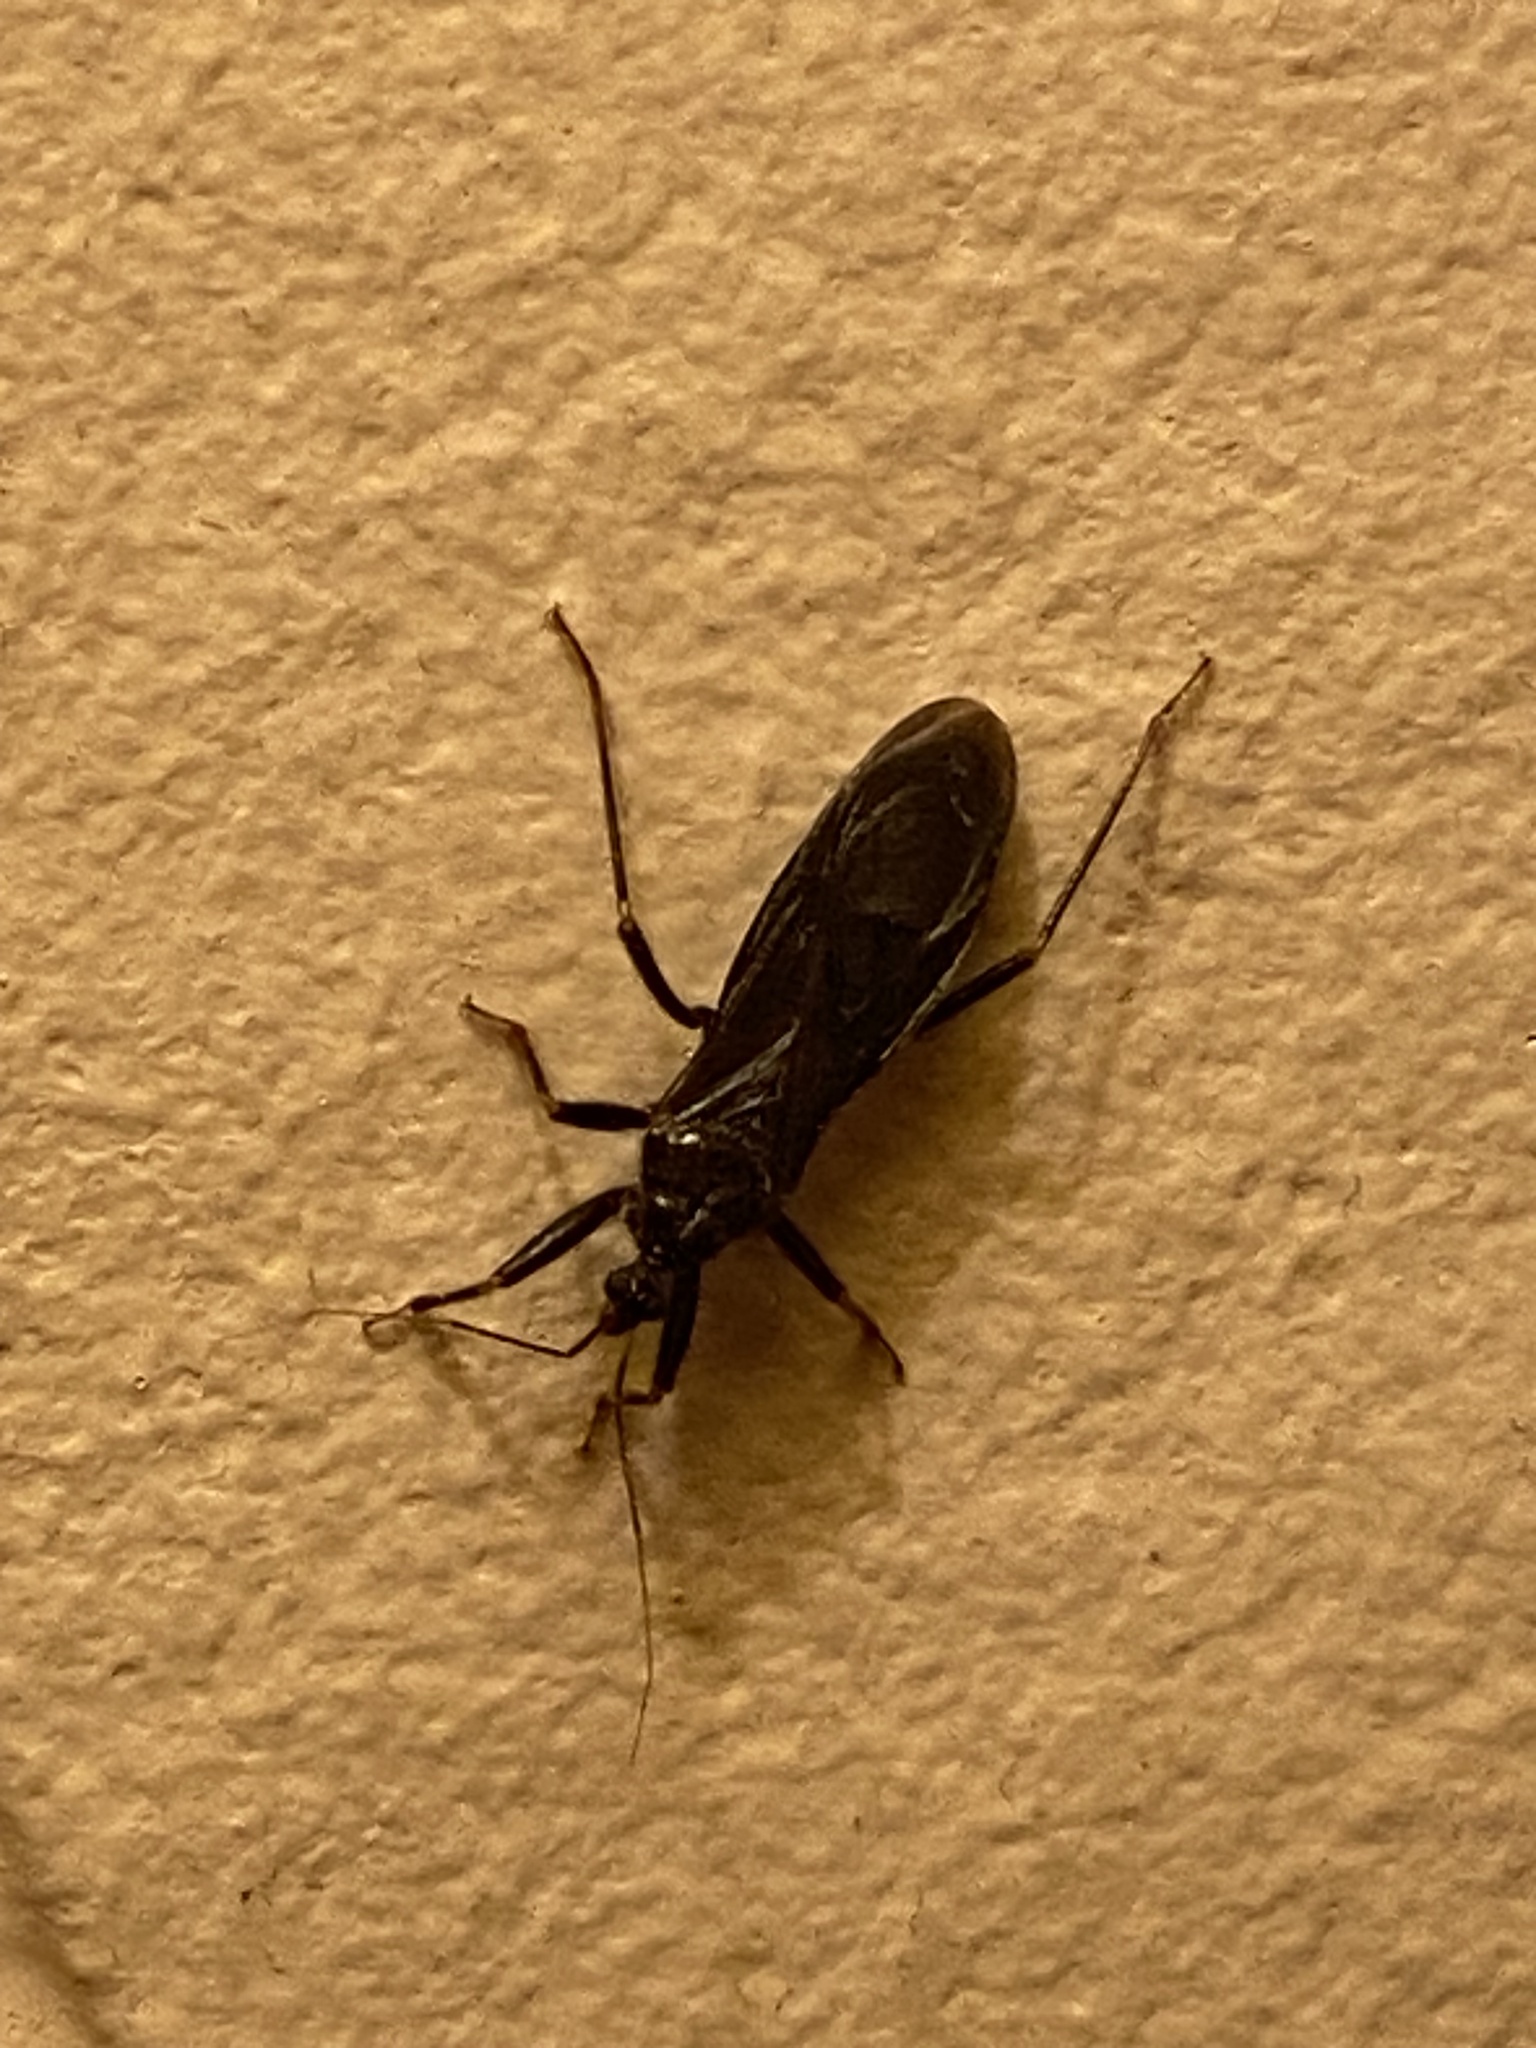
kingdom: Animalia
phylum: Arthropoda
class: Insecta
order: Hemiptera
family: Reduviidae
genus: Reduvius
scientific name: Reduvius personatus
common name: Masked hunter
